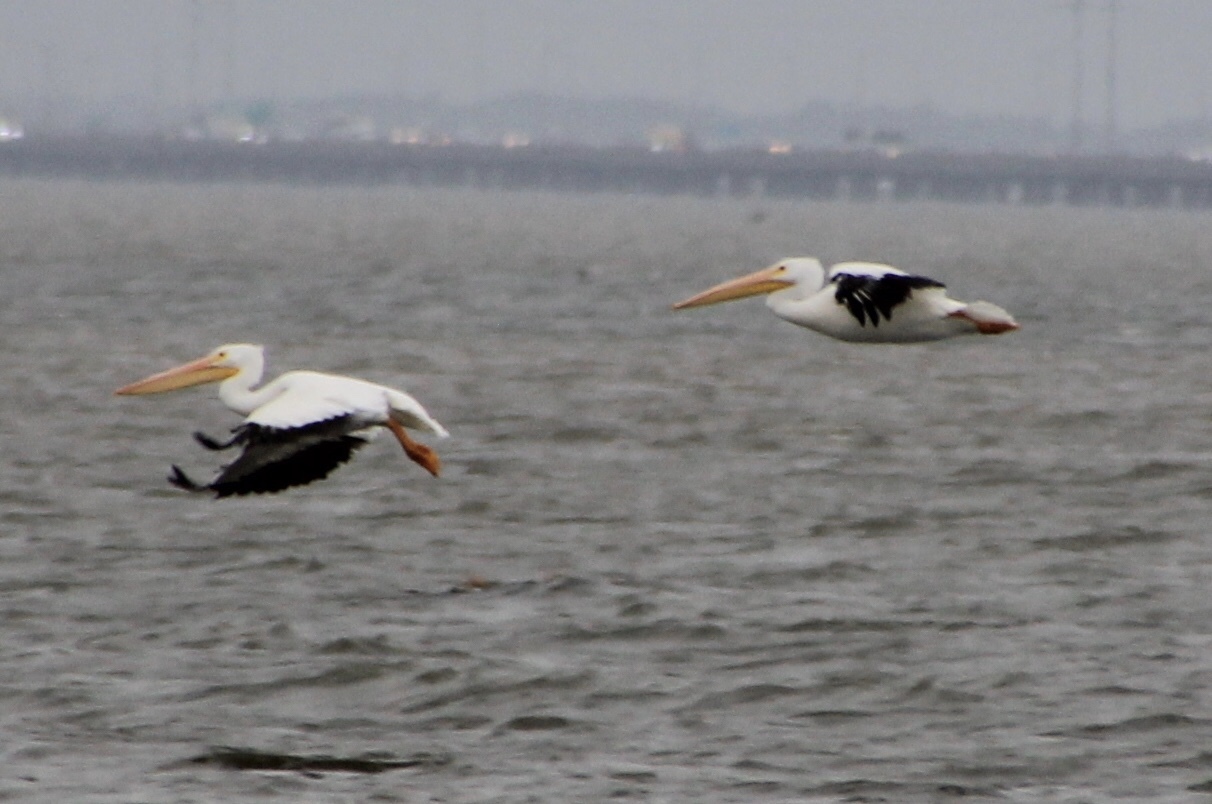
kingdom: Animalia
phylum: Chordata
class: Aves
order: Pelecaniformes
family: Pelecanidae
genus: Pelecanus
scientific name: Pelecanus erythrorhynchos
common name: American white pelican
